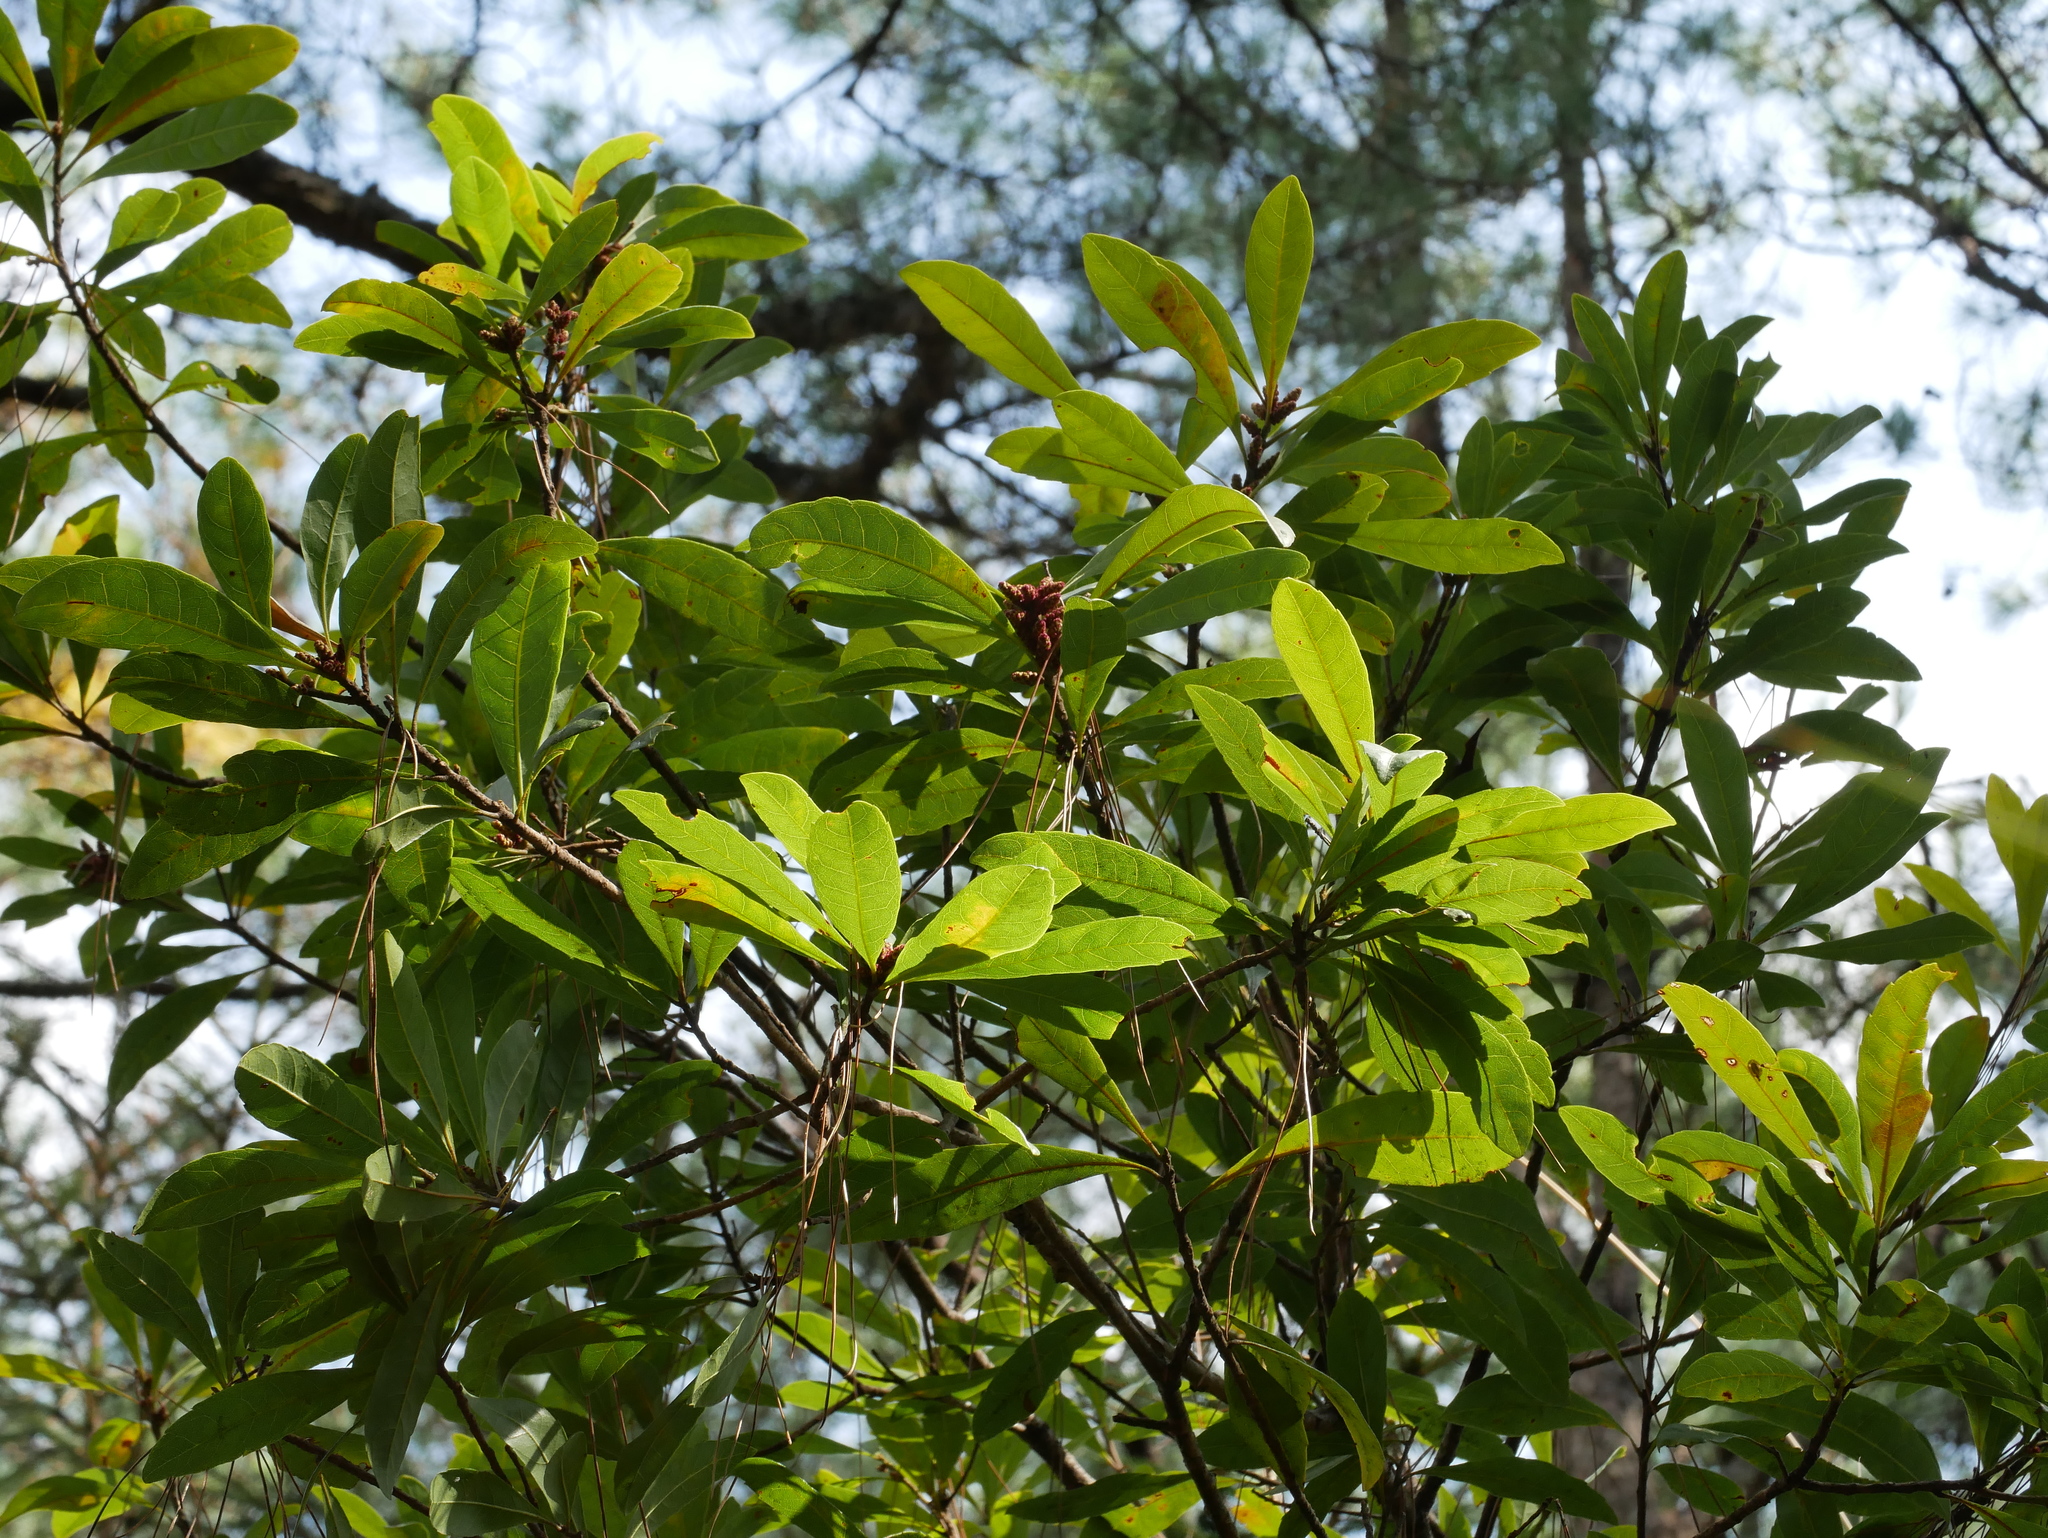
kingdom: Plantae
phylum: Tracheophyta
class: Magnoliopsida
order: Fagales
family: Myricaceae
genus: Morella
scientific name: Morella rubra
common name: Red bayberry
